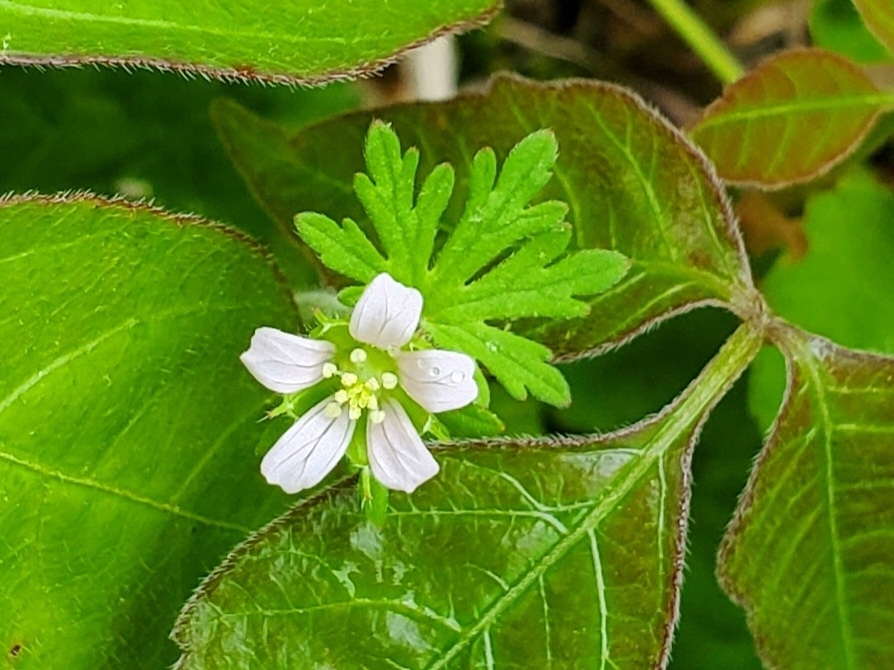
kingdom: Plantae
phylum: Tracheophyta
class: Magnoliopsida
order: Geraniales
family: Geraniaceae
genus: Geranium
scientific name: Geranium carolinianum
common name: Carolina crane's-bill
